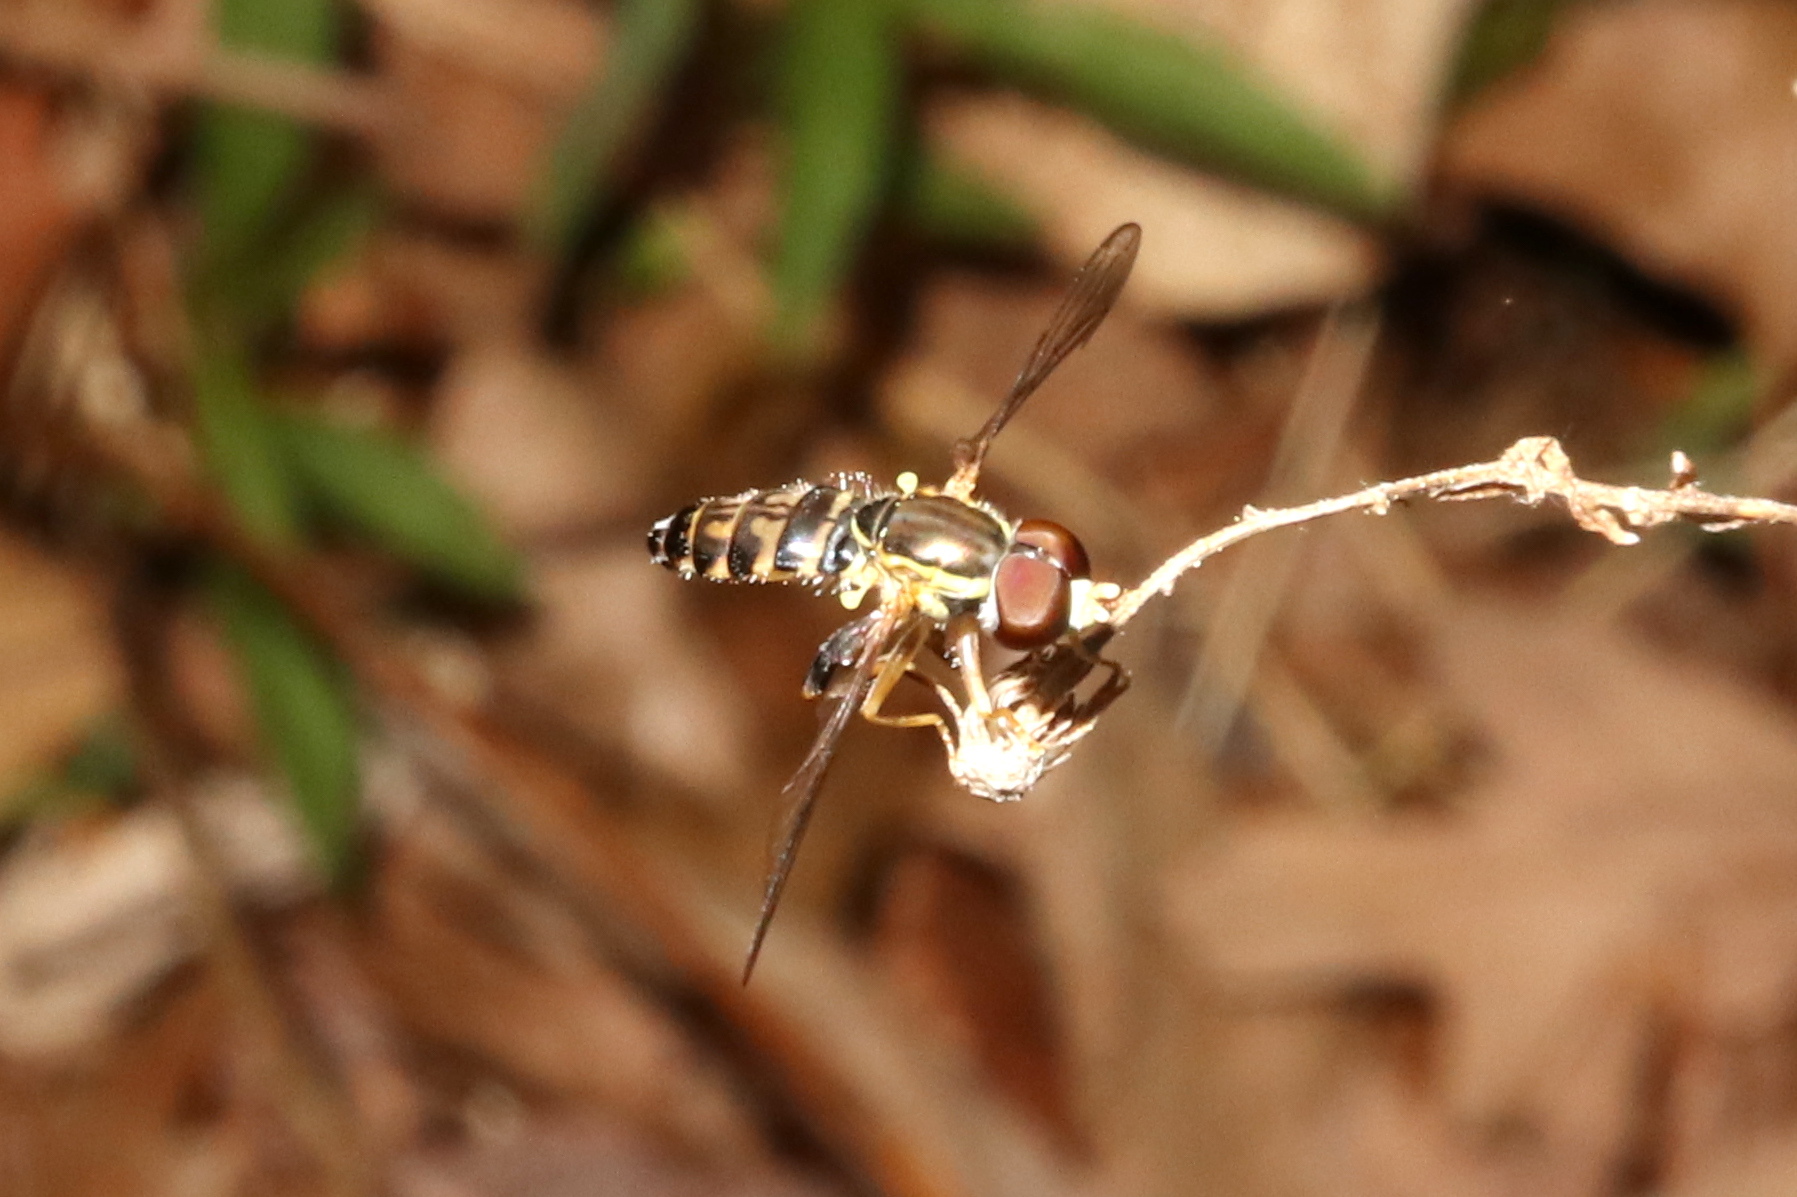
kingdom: Animalia
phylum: Arthropoda
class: Insecta
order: Diptera
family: Syrphidae
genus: Toxomerus
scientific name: Toxomerus geminatus
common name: Eastern calligrapher
